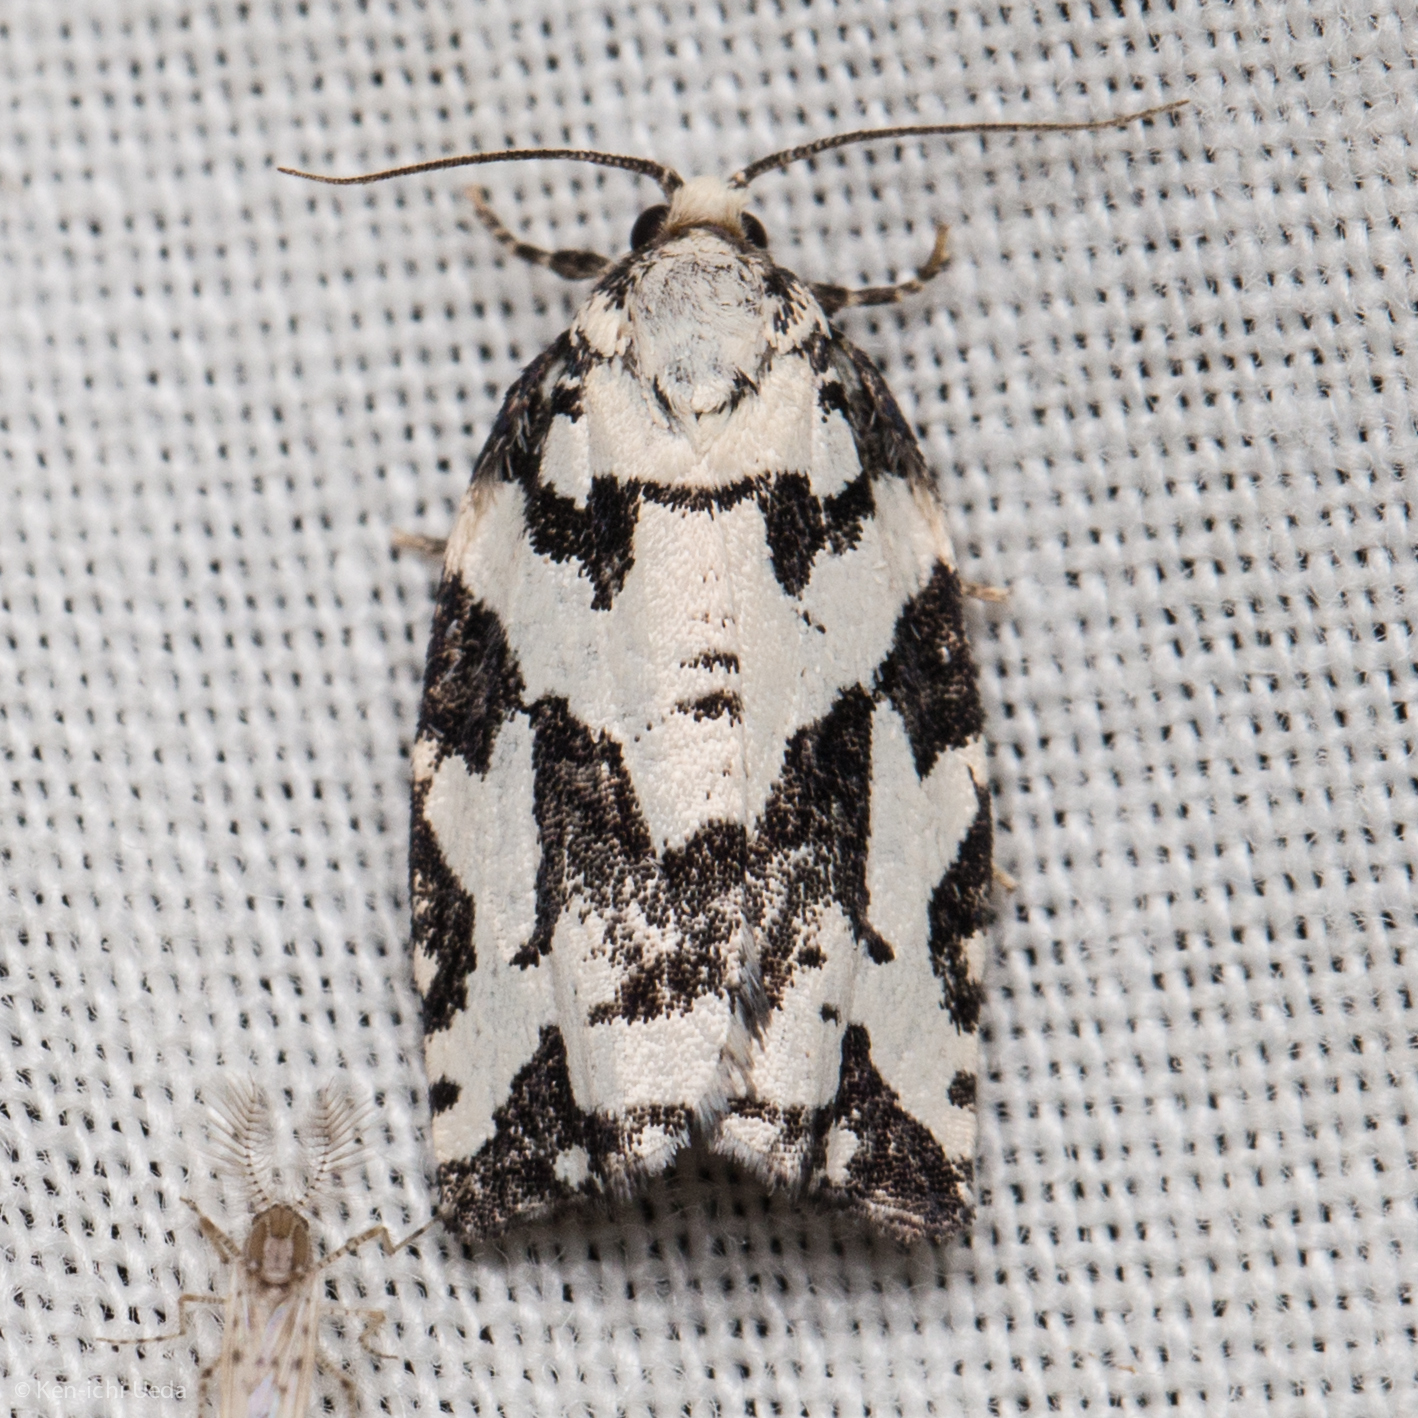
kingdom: Animalia
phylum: Arthropoda
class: Insecta
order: Lepidoptera
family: Tortricidae
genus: Archips
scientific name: Archips dissitana
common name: Boldly-marked archips moth
